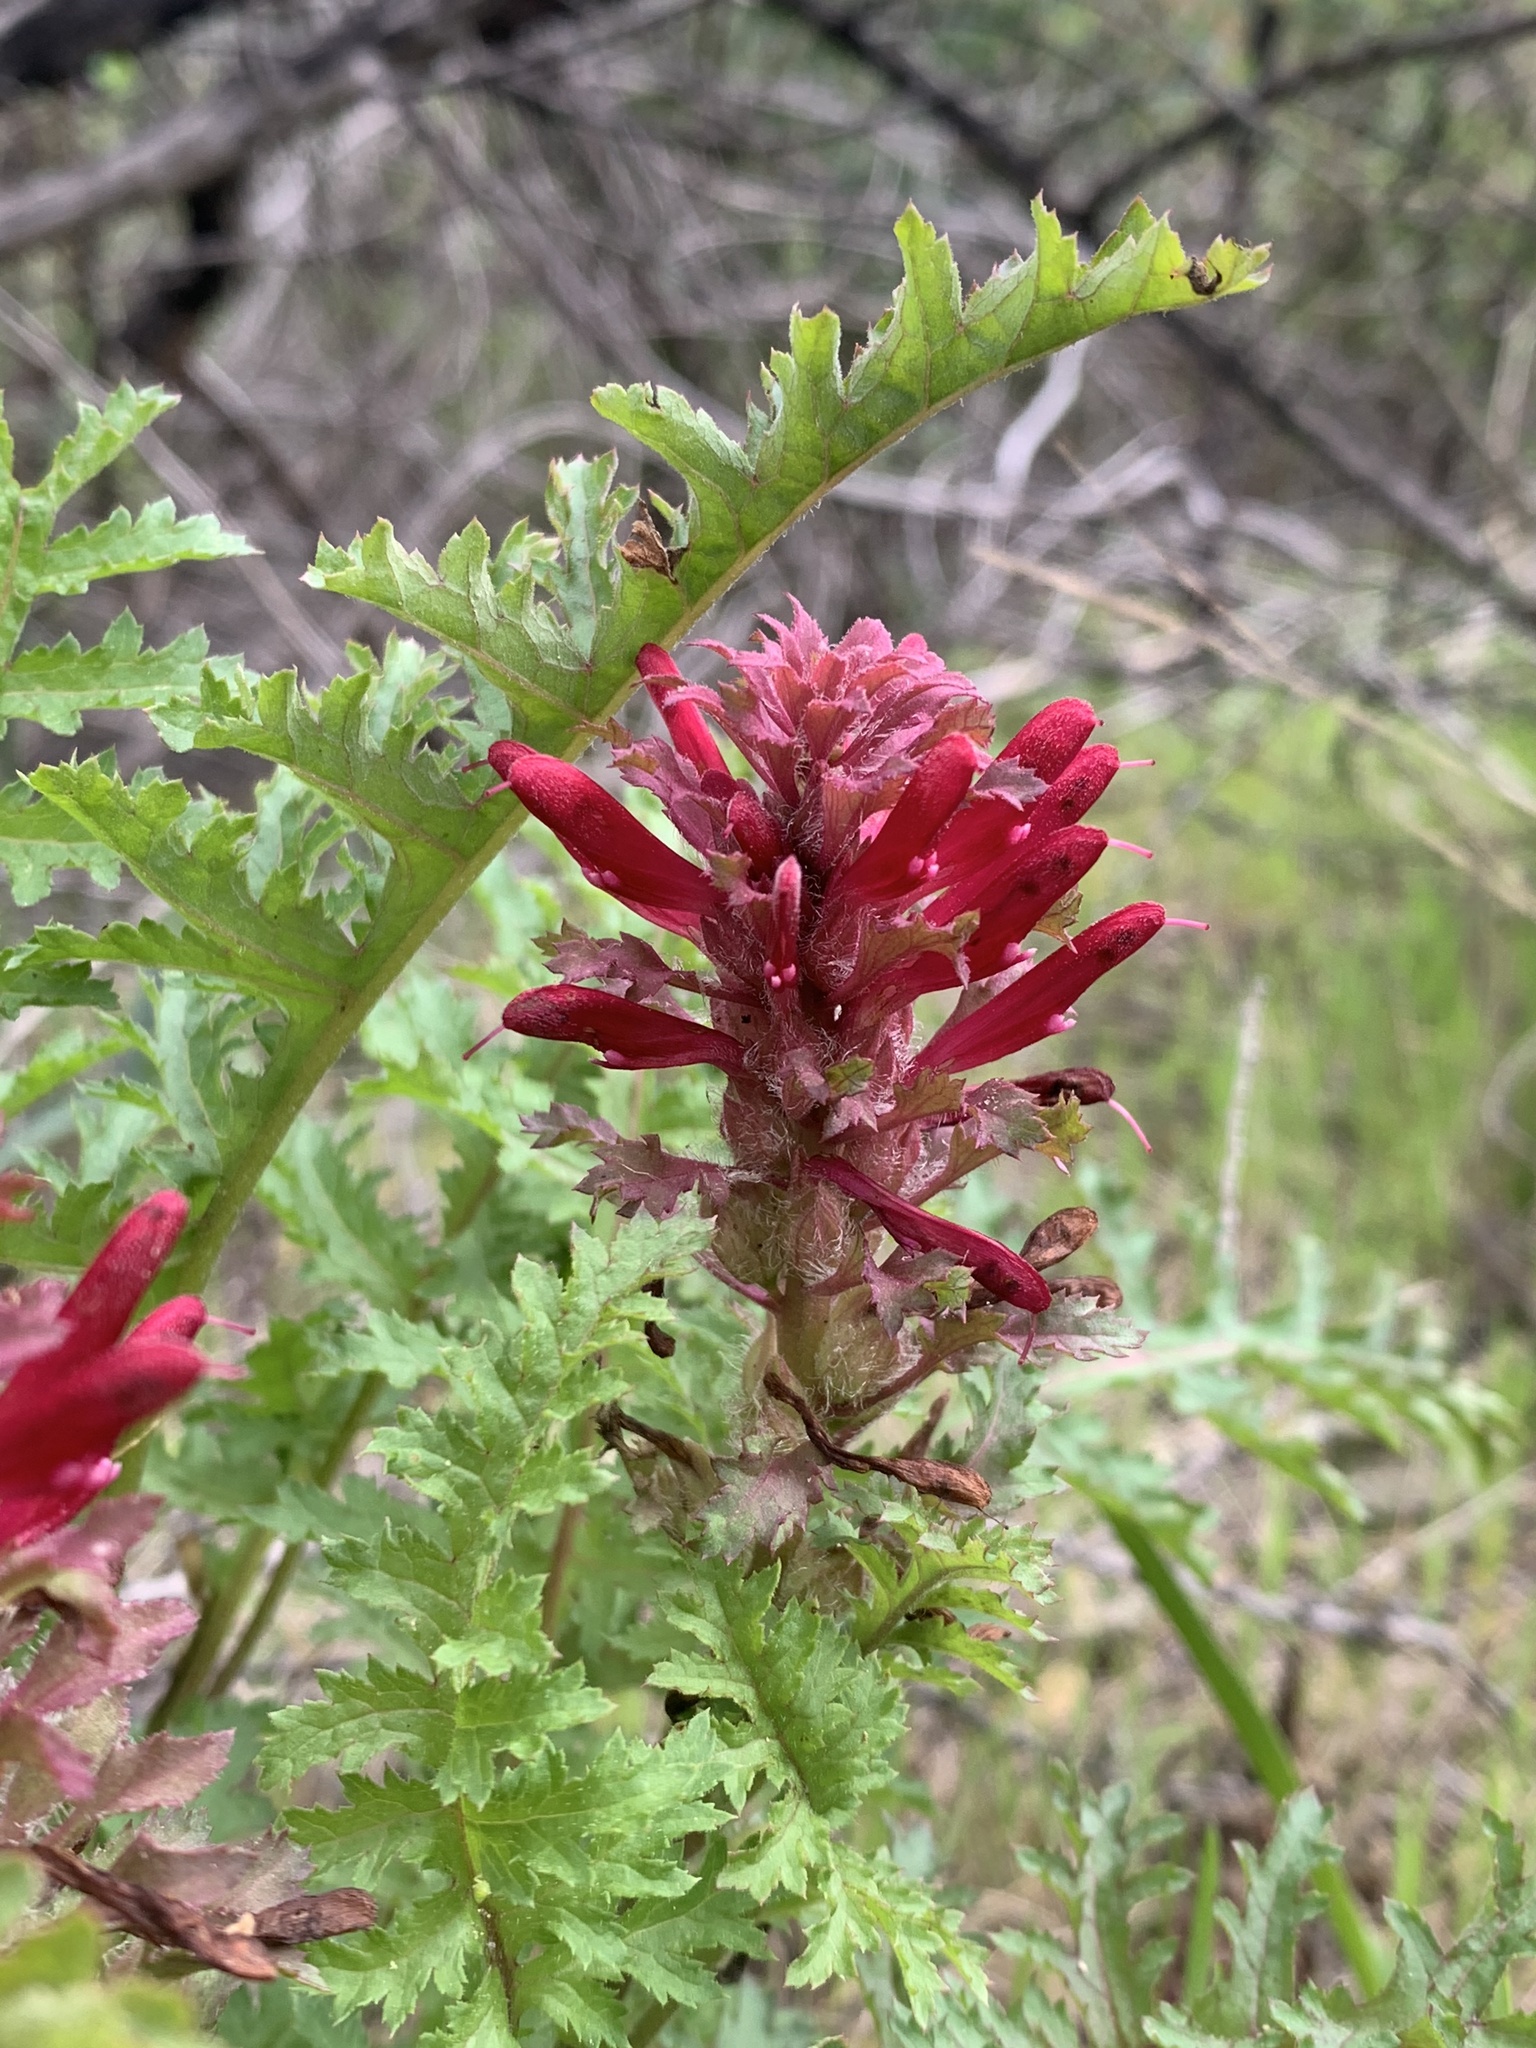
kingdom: Plantae
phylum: Tracheophyta
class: Magnoliopsida
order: Lamiales
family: Orobanchaceae
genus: Pedicularis
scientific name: Pedicularis densiflora
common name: Indian warrior
